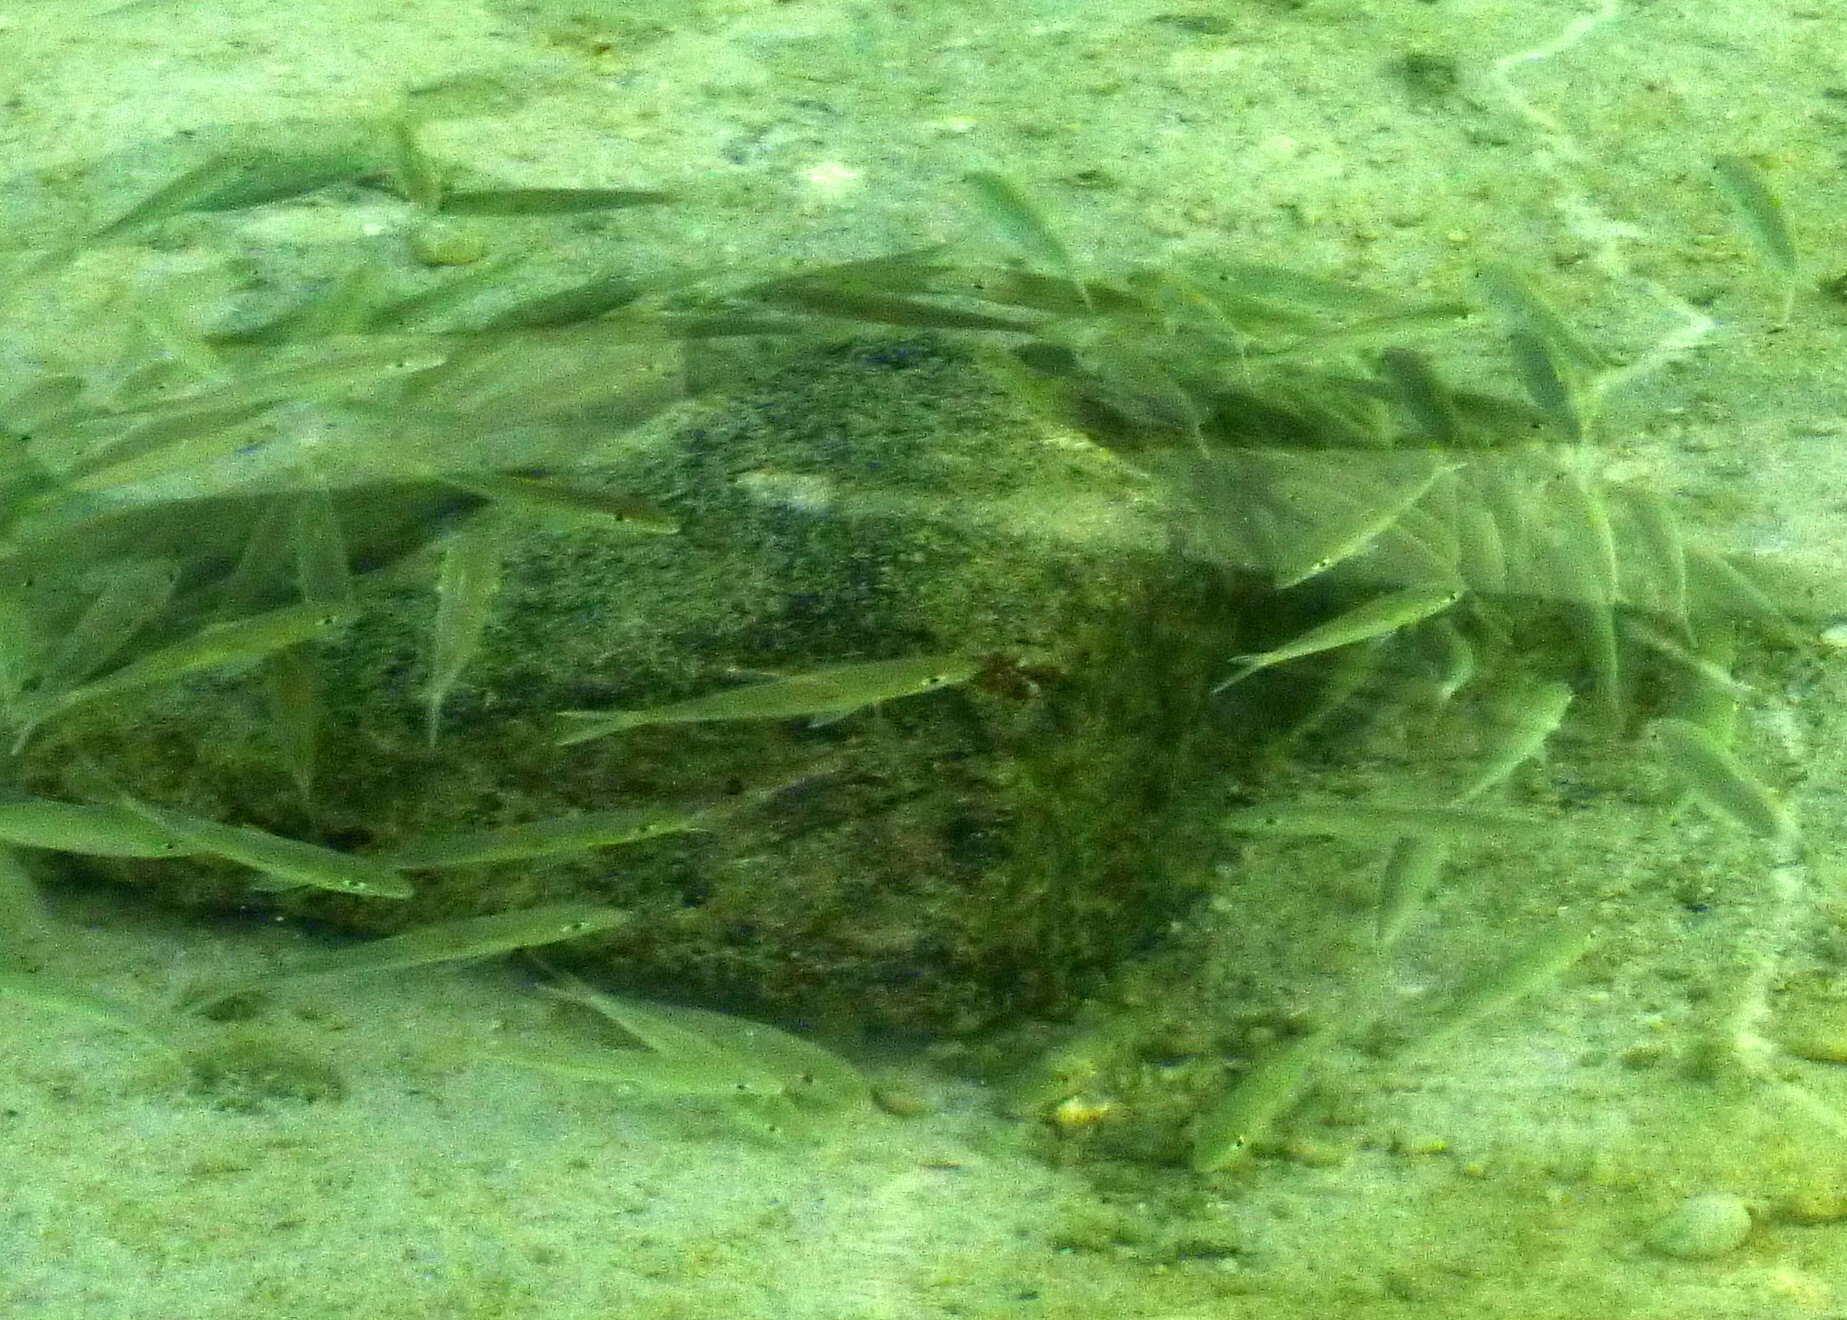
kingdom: Animalia
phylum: Chordata
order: Perciformes
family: Mullidae
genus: Mulloidichthys
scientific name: Mulloidichthys flavolineatus
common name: Yellowstripe goatfish
